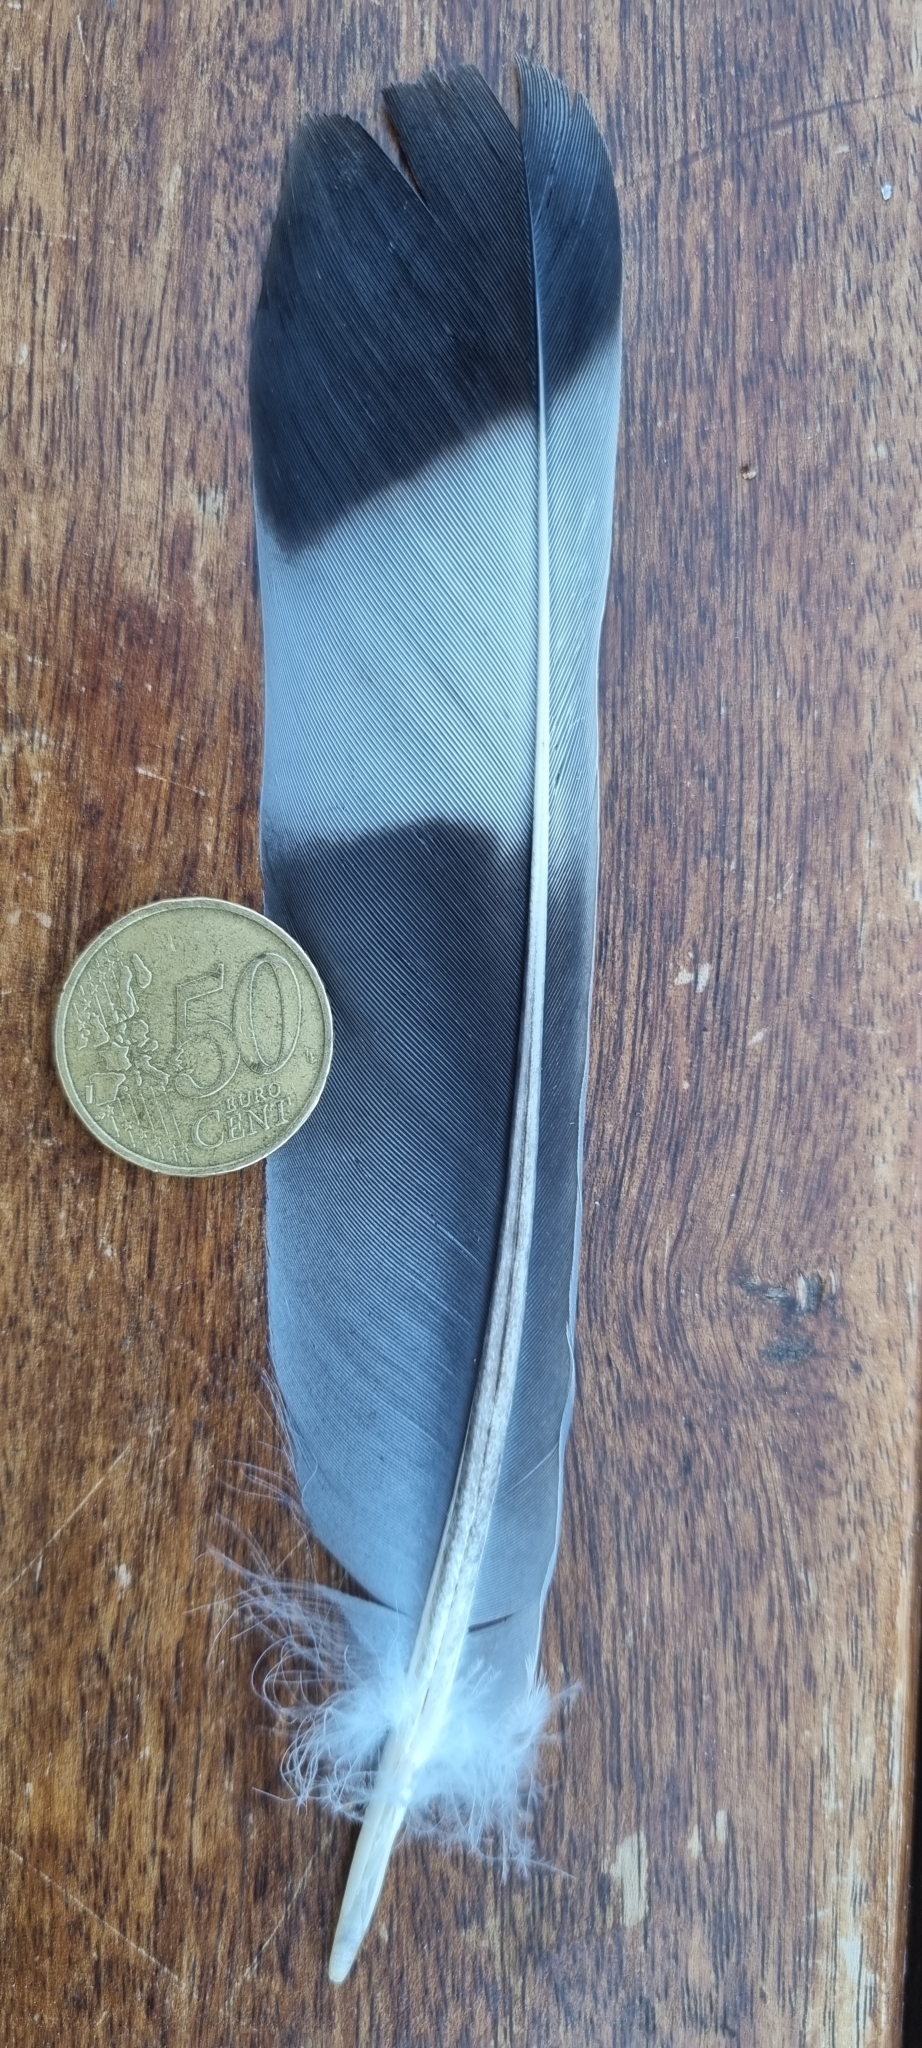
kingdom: Animalia
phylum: Chordata
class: Aves
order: Columbiformes
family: Columbidae
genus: Columba
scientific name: Columba palumbus
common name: Common wood pigeon
